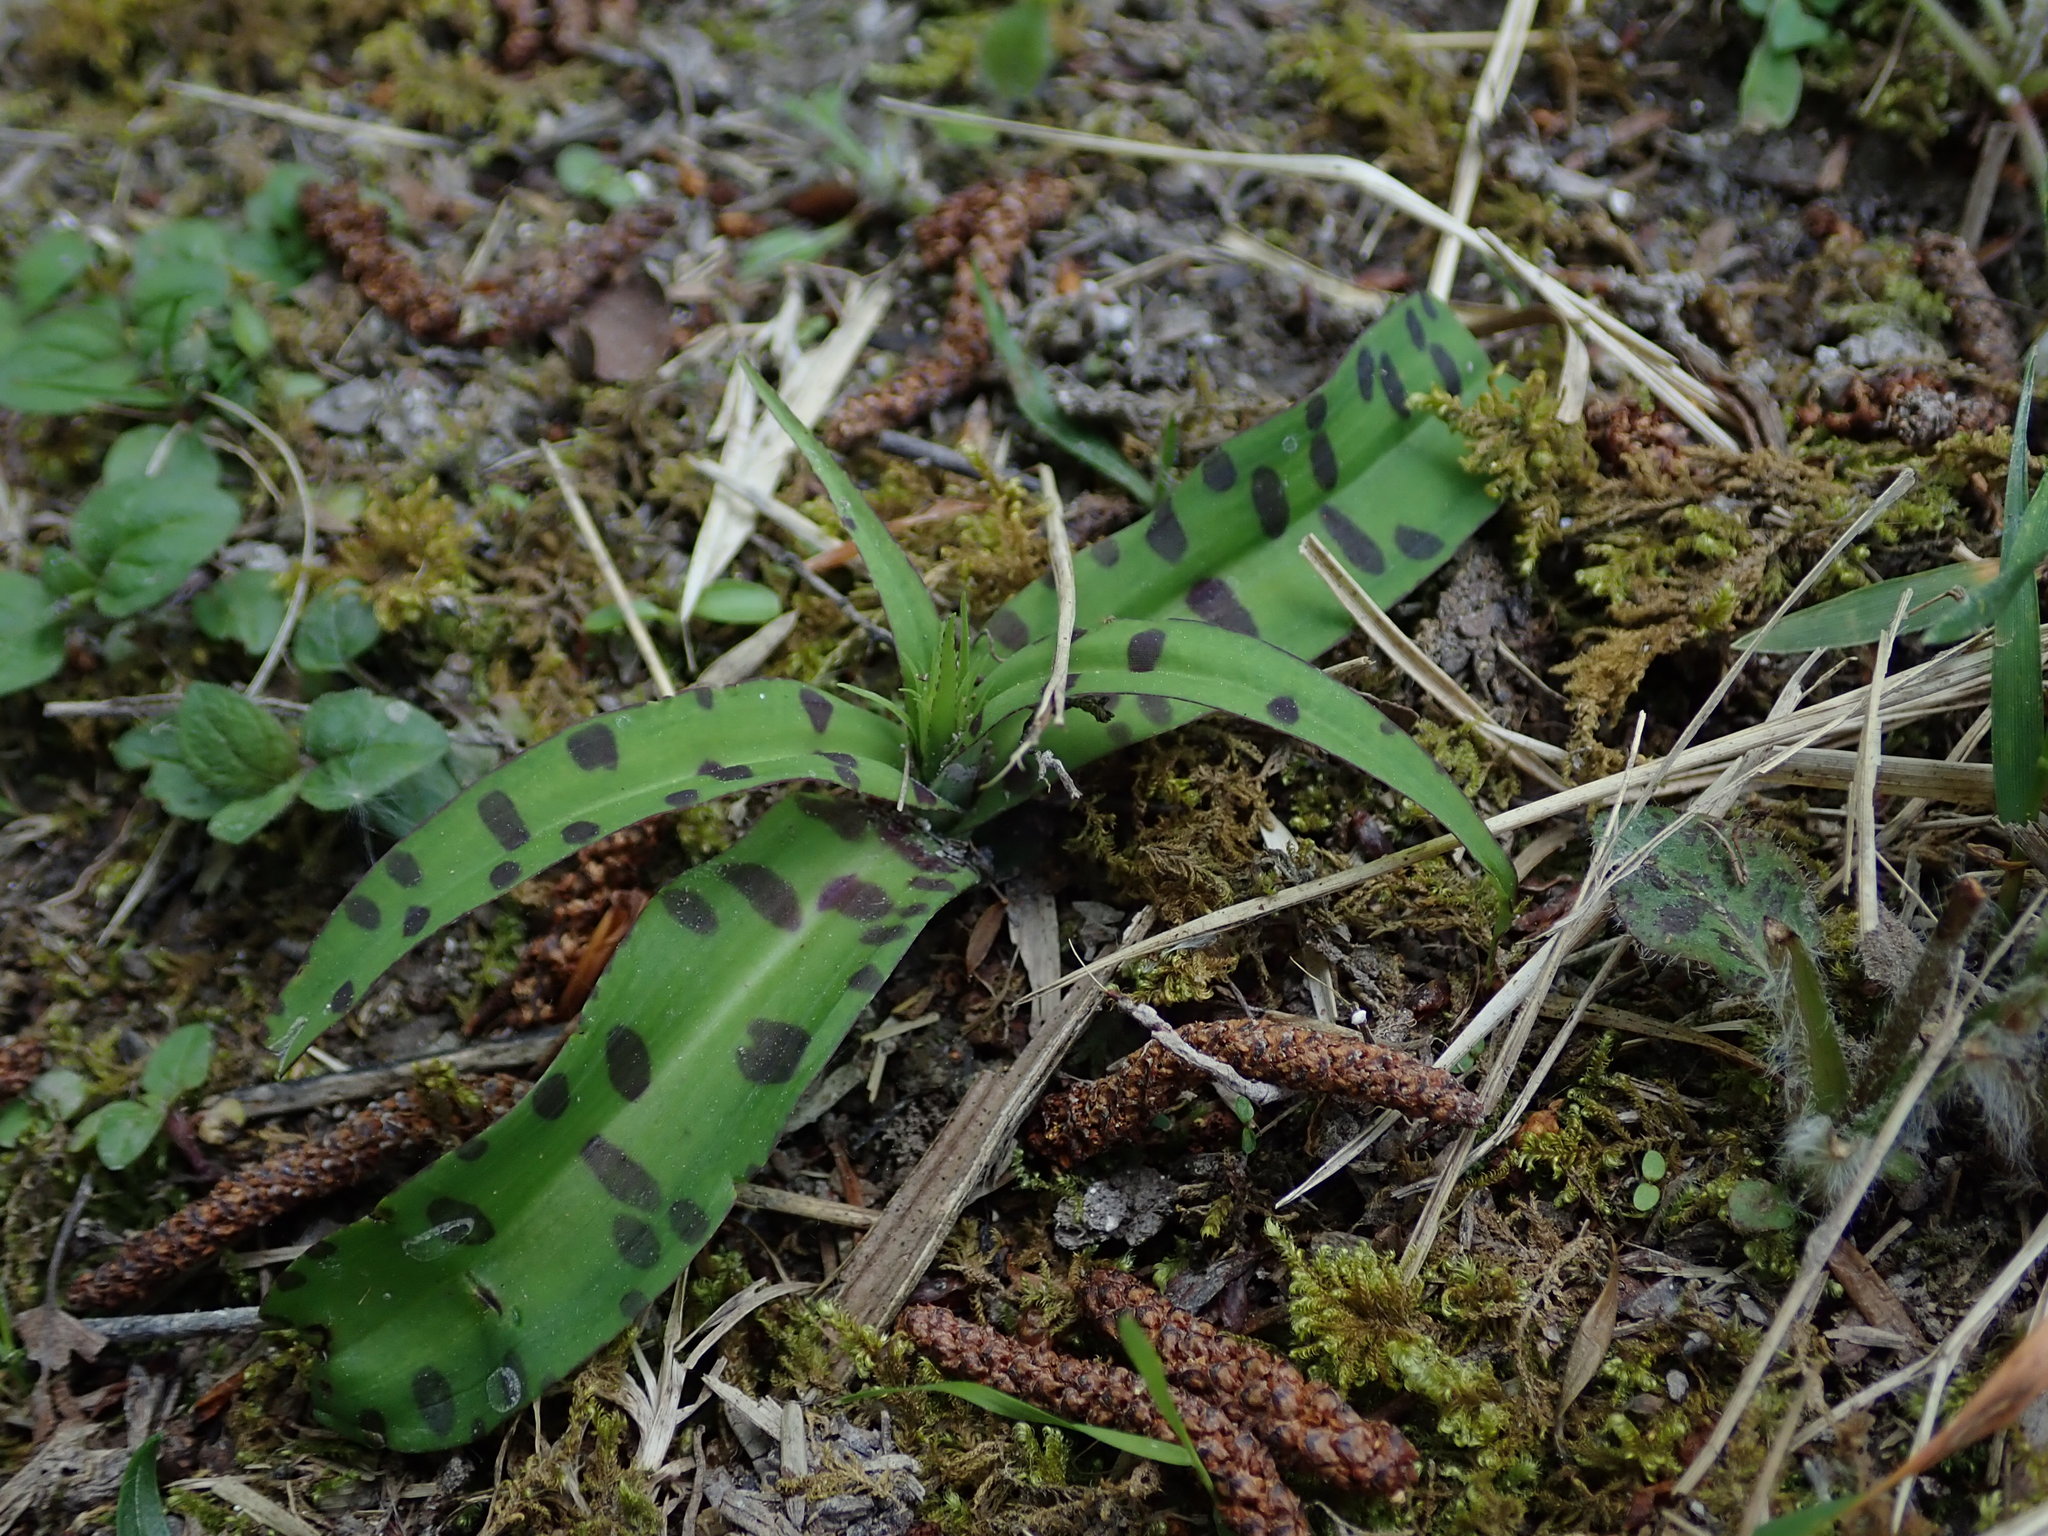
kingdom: Plantae
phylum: Tracheophyta
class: Liliopsida
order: Asparagales
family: Orchidaceae
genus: Dactylorhiza
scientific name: Dactylorhiza maculata
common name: Heath spotted-orchid
